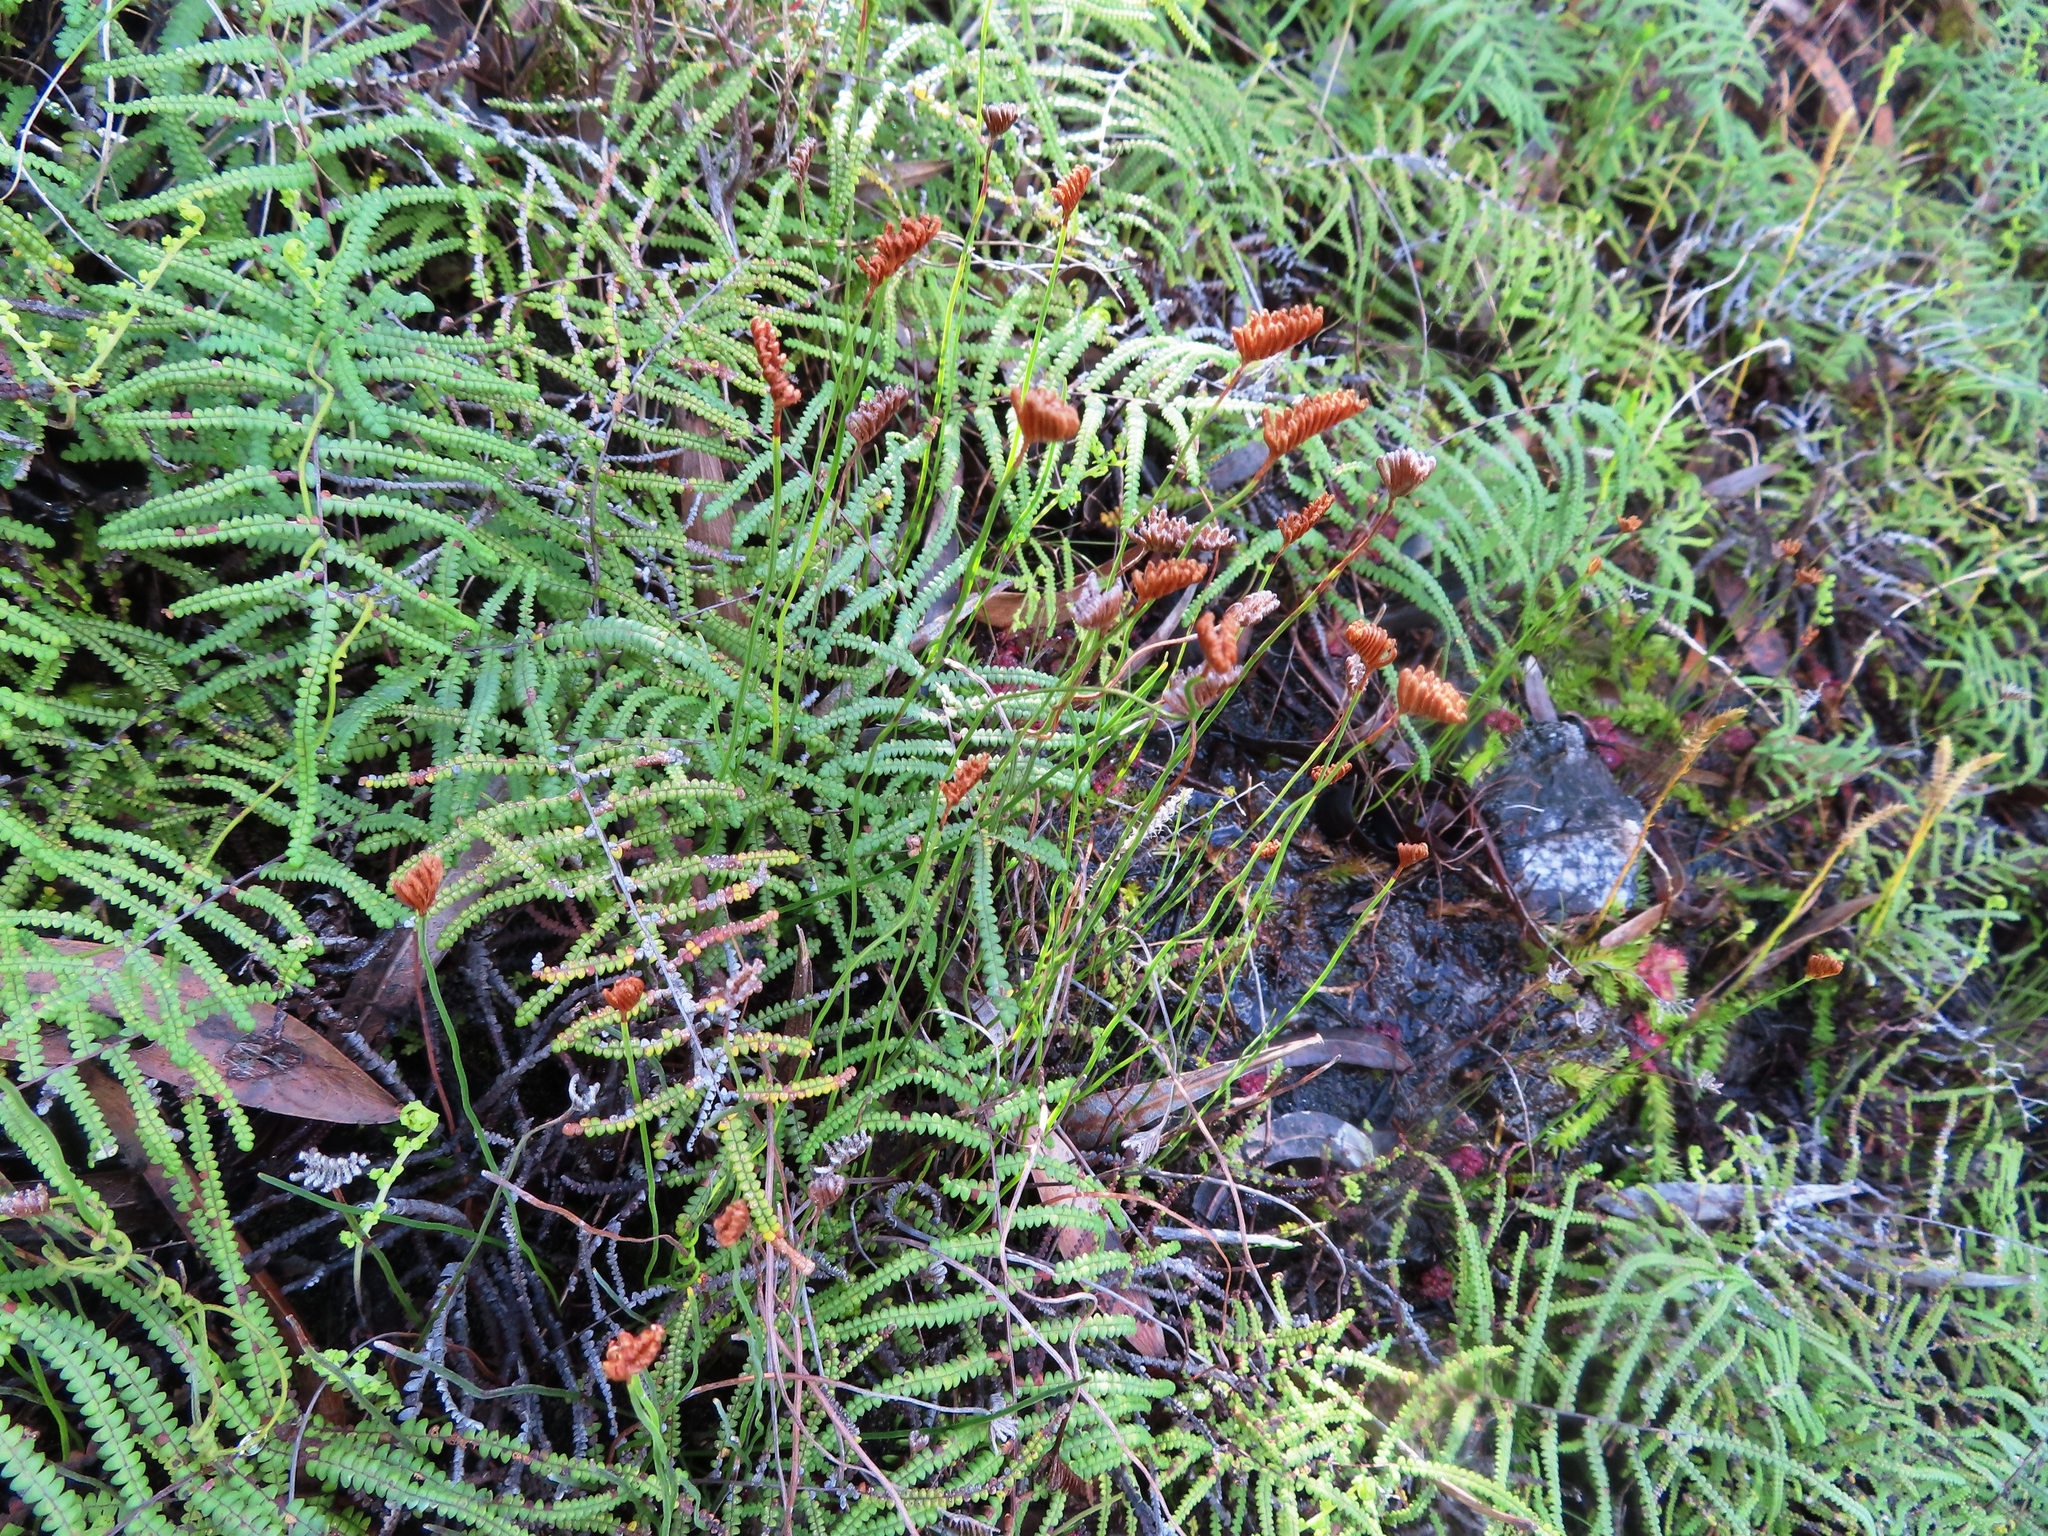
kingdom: Plantae
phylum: Tracheophyta
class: Polypodiopsida
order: Schizaeales
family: Schizaeaceae
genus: Microschizaea
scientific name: Microschizaea tenella
